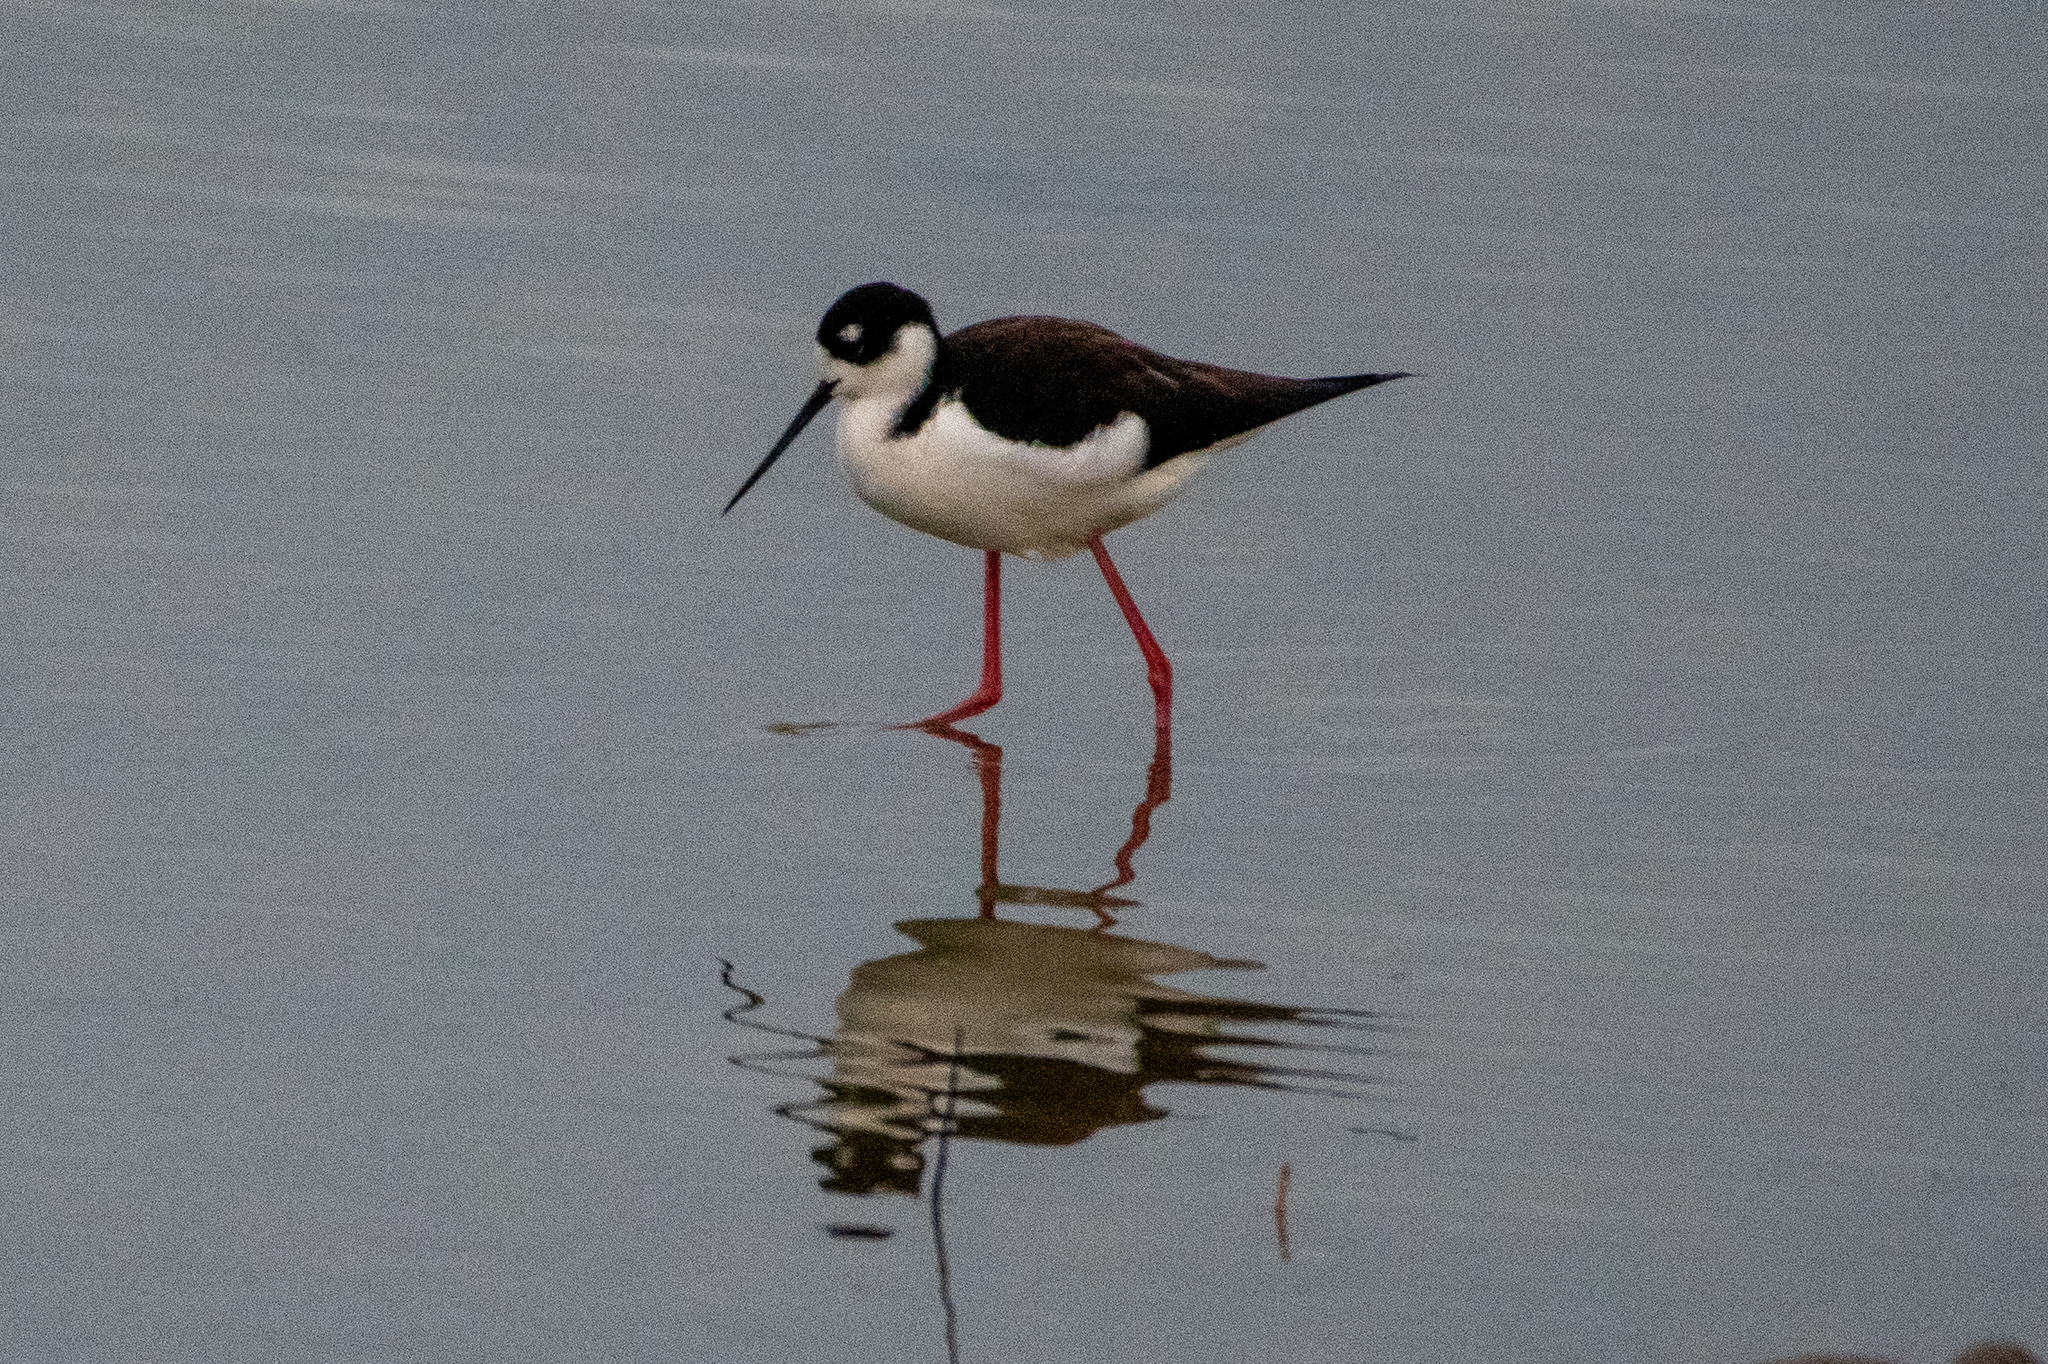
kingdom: Animalia
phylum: Chordata
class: Aves
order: Charadriiformes
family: Recurvirostridae
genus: Himantopus
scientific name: Himantopus mexicanus
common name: Black-necked stilt
